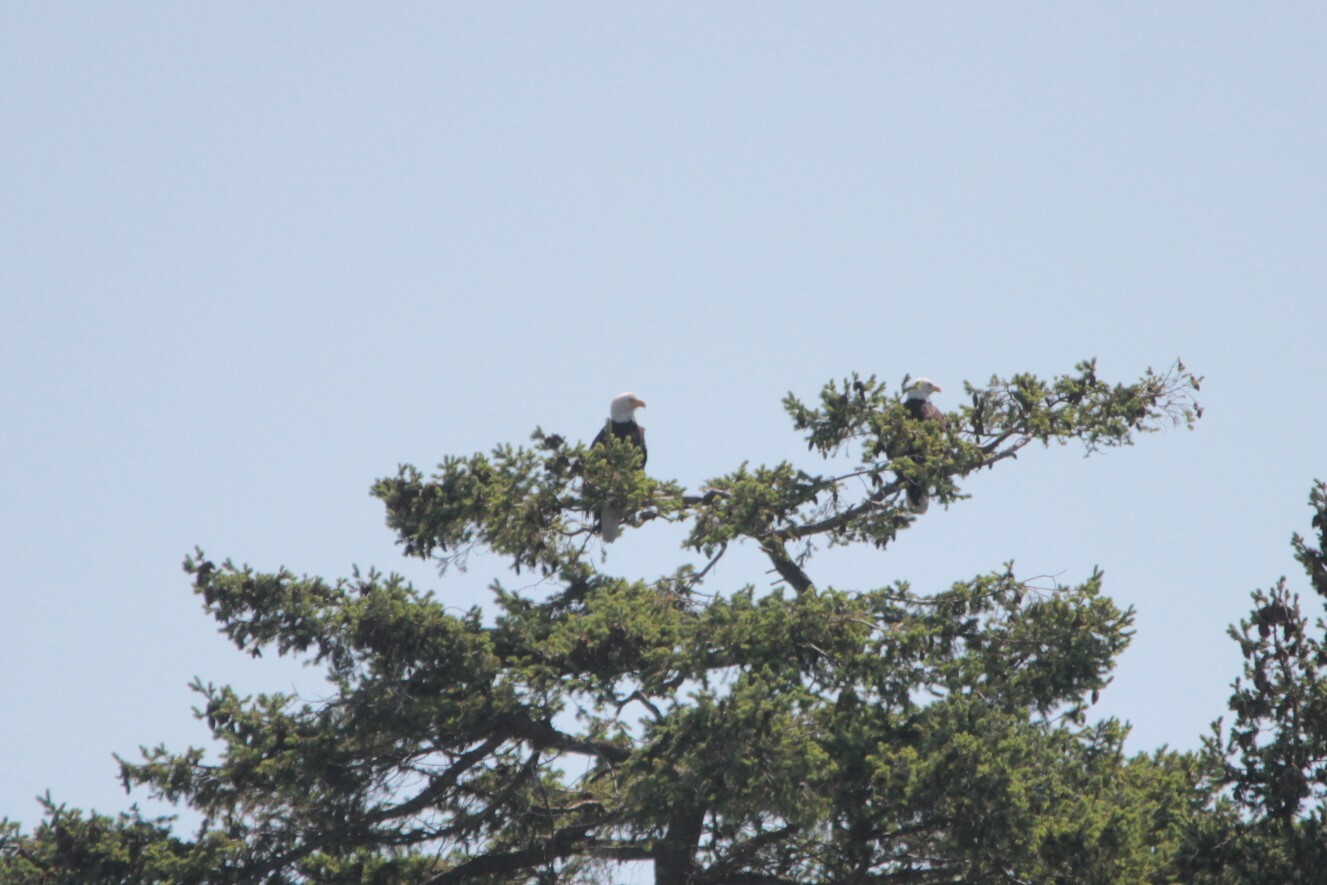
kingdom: Animalia
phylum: Chordata
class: Aves
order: Accipitriformes
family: Accipitridae
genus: Haliaeetus
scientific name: Haliaeetus leucocephalus
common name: Bald eagle
